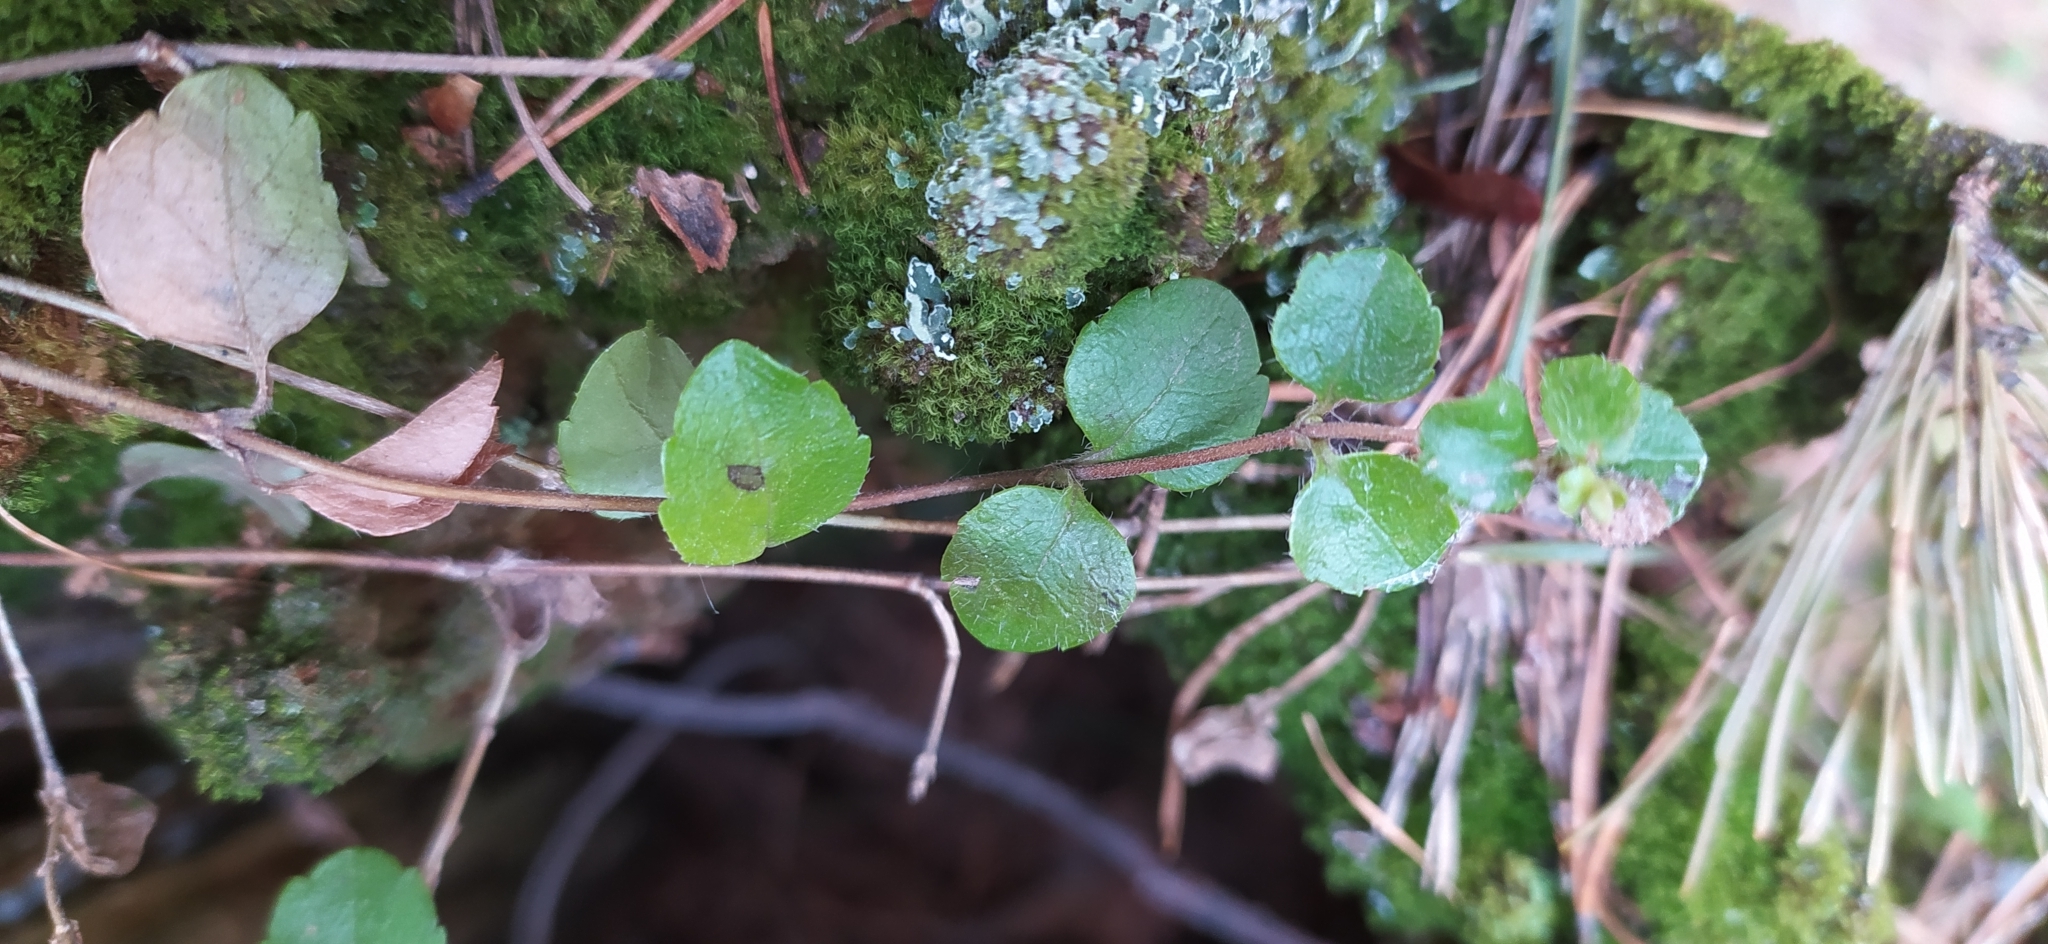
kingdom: Plantae
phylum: Tracheophyta
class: Magnoliopsida
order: Dipsacales
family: Caprifoliaceae
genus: Linnaea
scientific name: Linnaea borealis
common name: Twinflower
